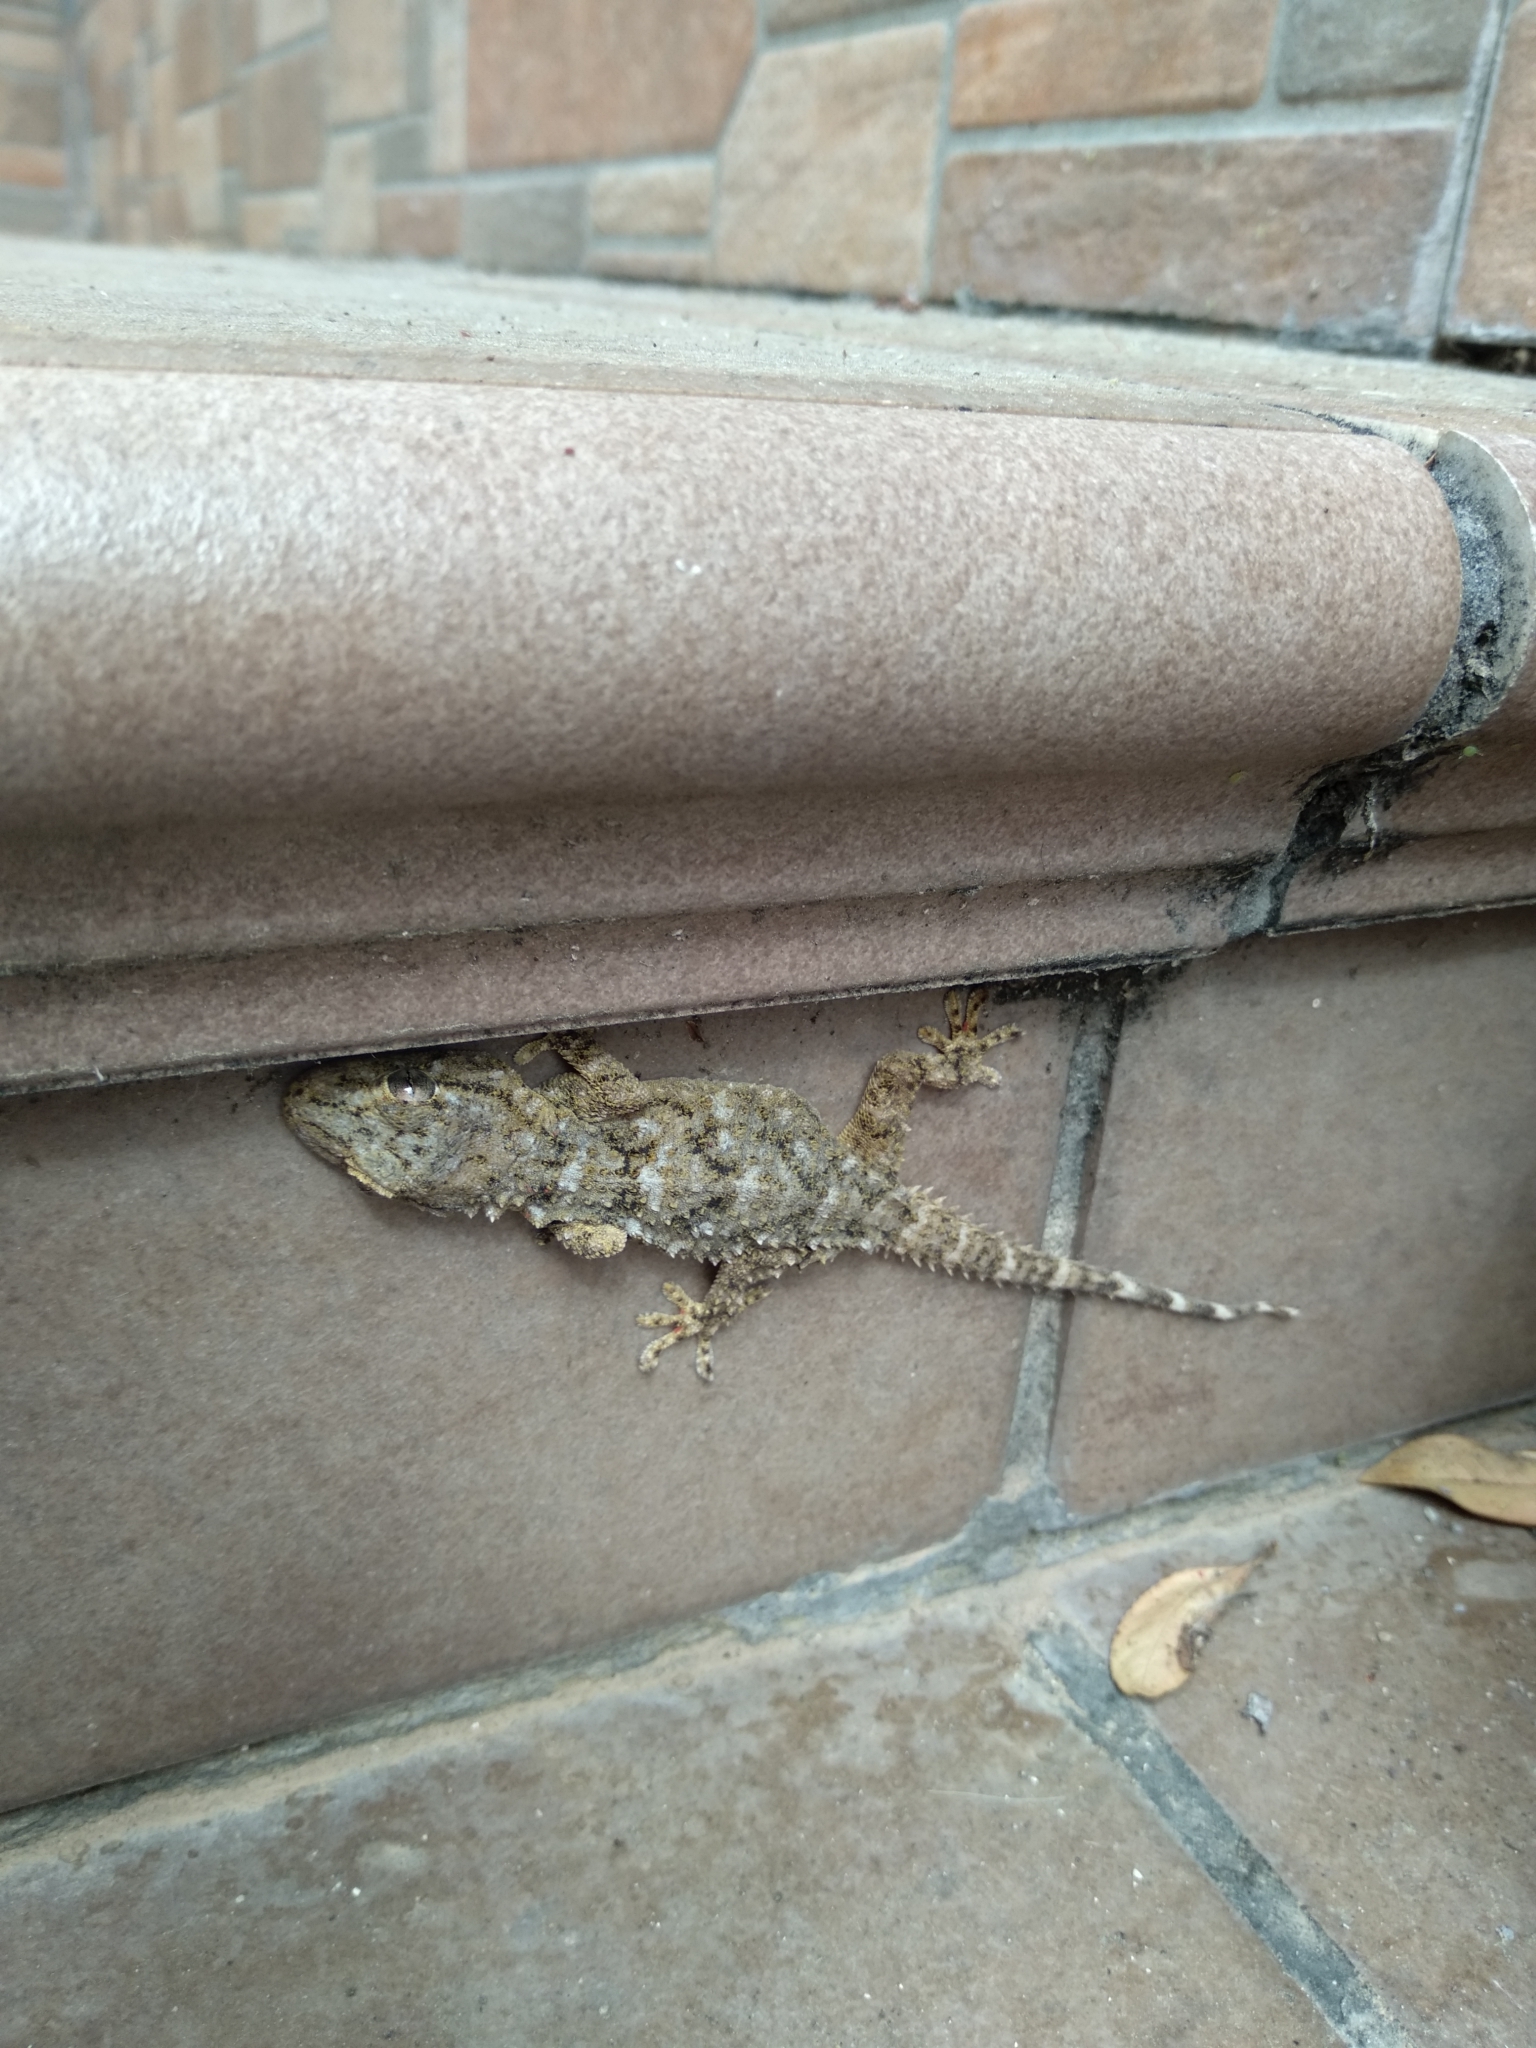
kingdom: Animalia
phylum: Chordata
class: Squamata
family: Phyllodactylidae
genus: Tarentola
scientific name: Tarentola mauritanica
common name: Moorish gecko
